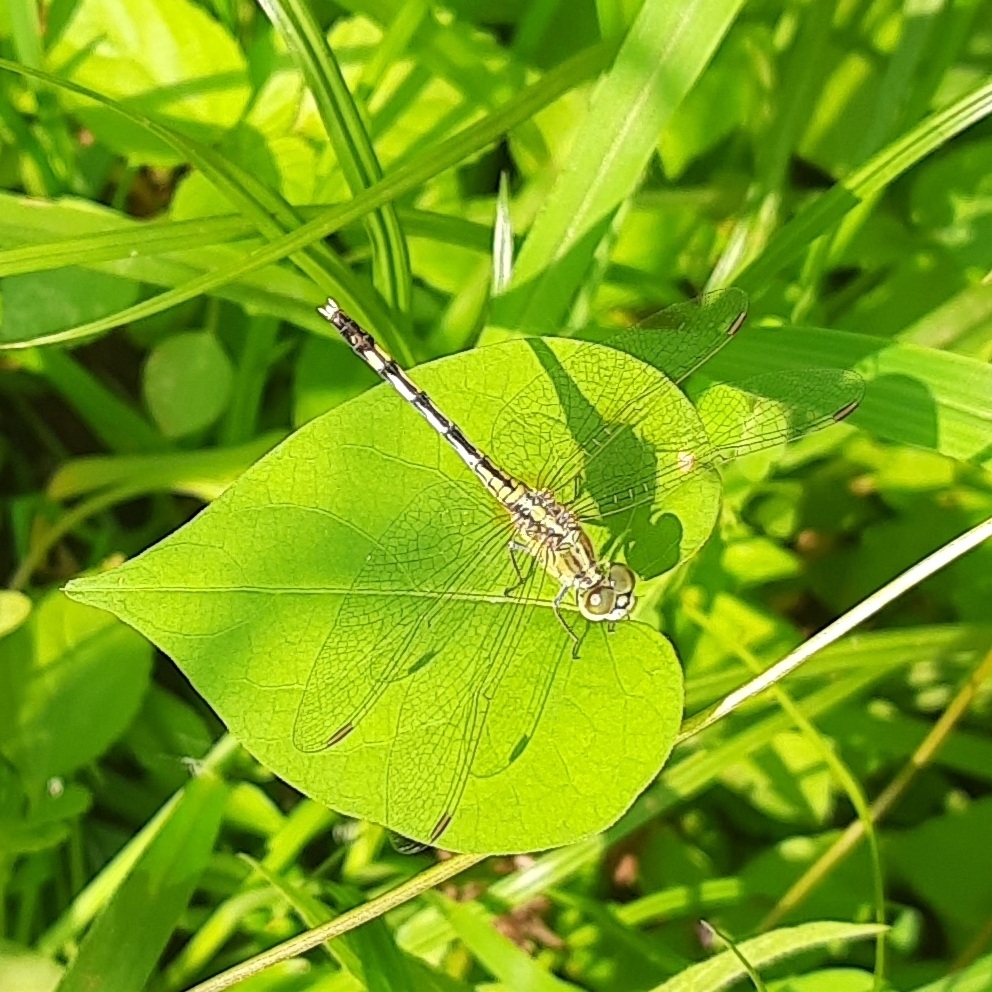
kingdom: Animalia
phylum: Arthropoda
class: Insecta
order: Odonata
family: Libellulidae
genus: Diplacodes
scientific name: Diplacodes trivialis
